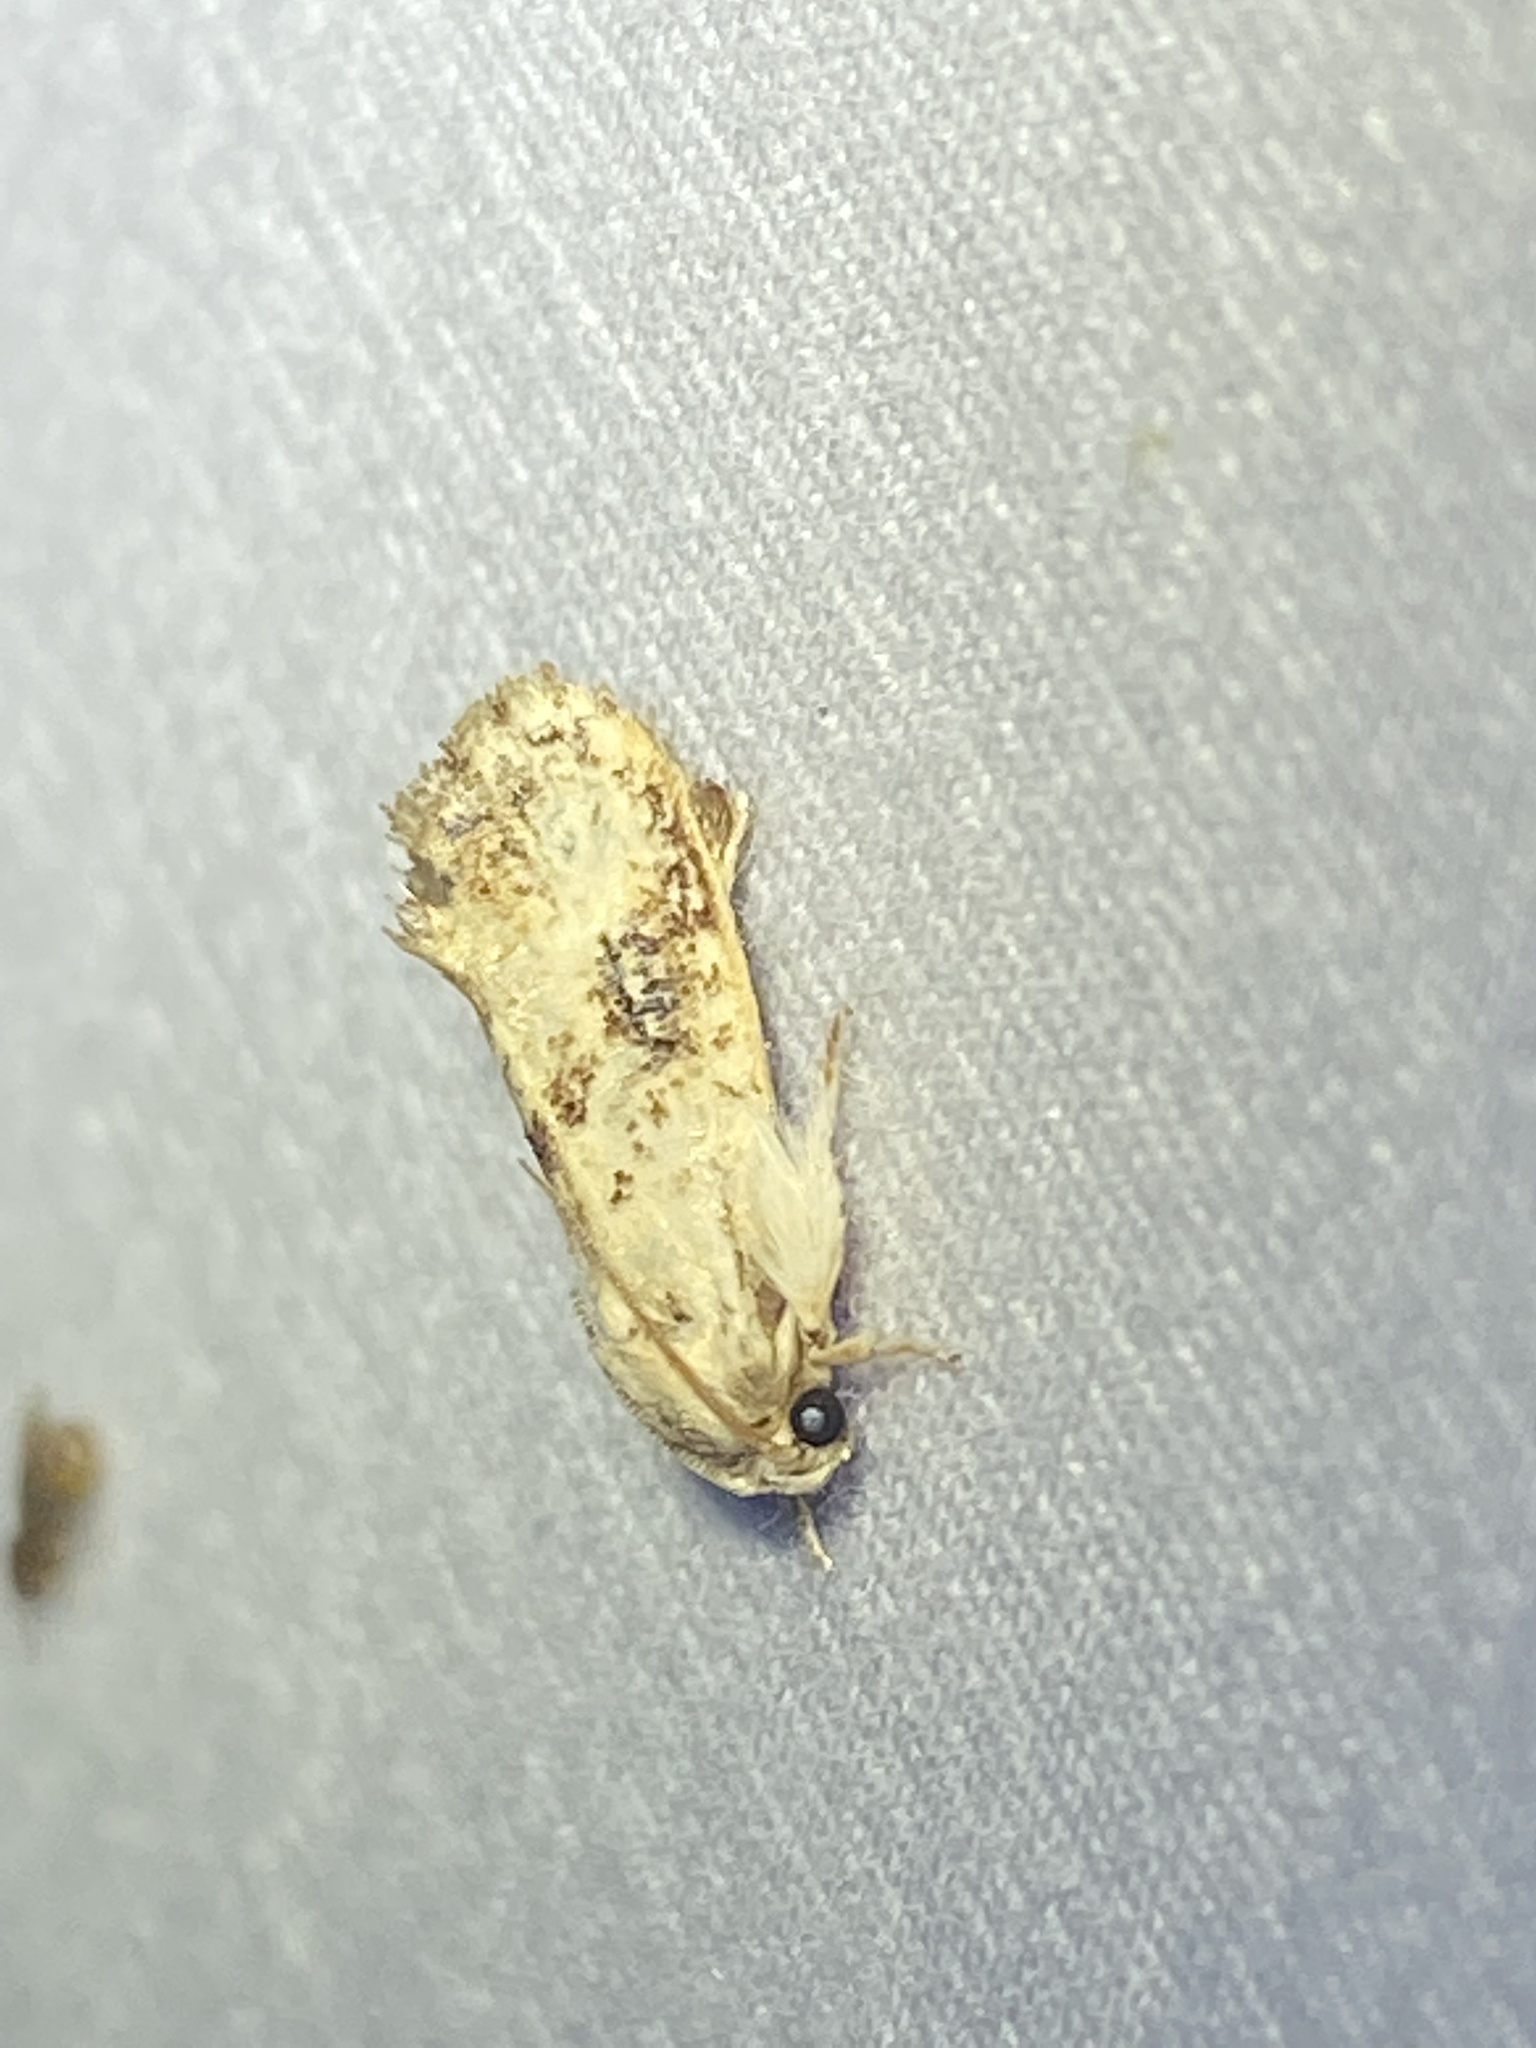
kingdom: Animalia
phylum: Arthropoda
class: Insecta
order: Lepidoptera
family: Tineidae
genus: Acrolophus
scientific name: Acrolophus mycetophagus
